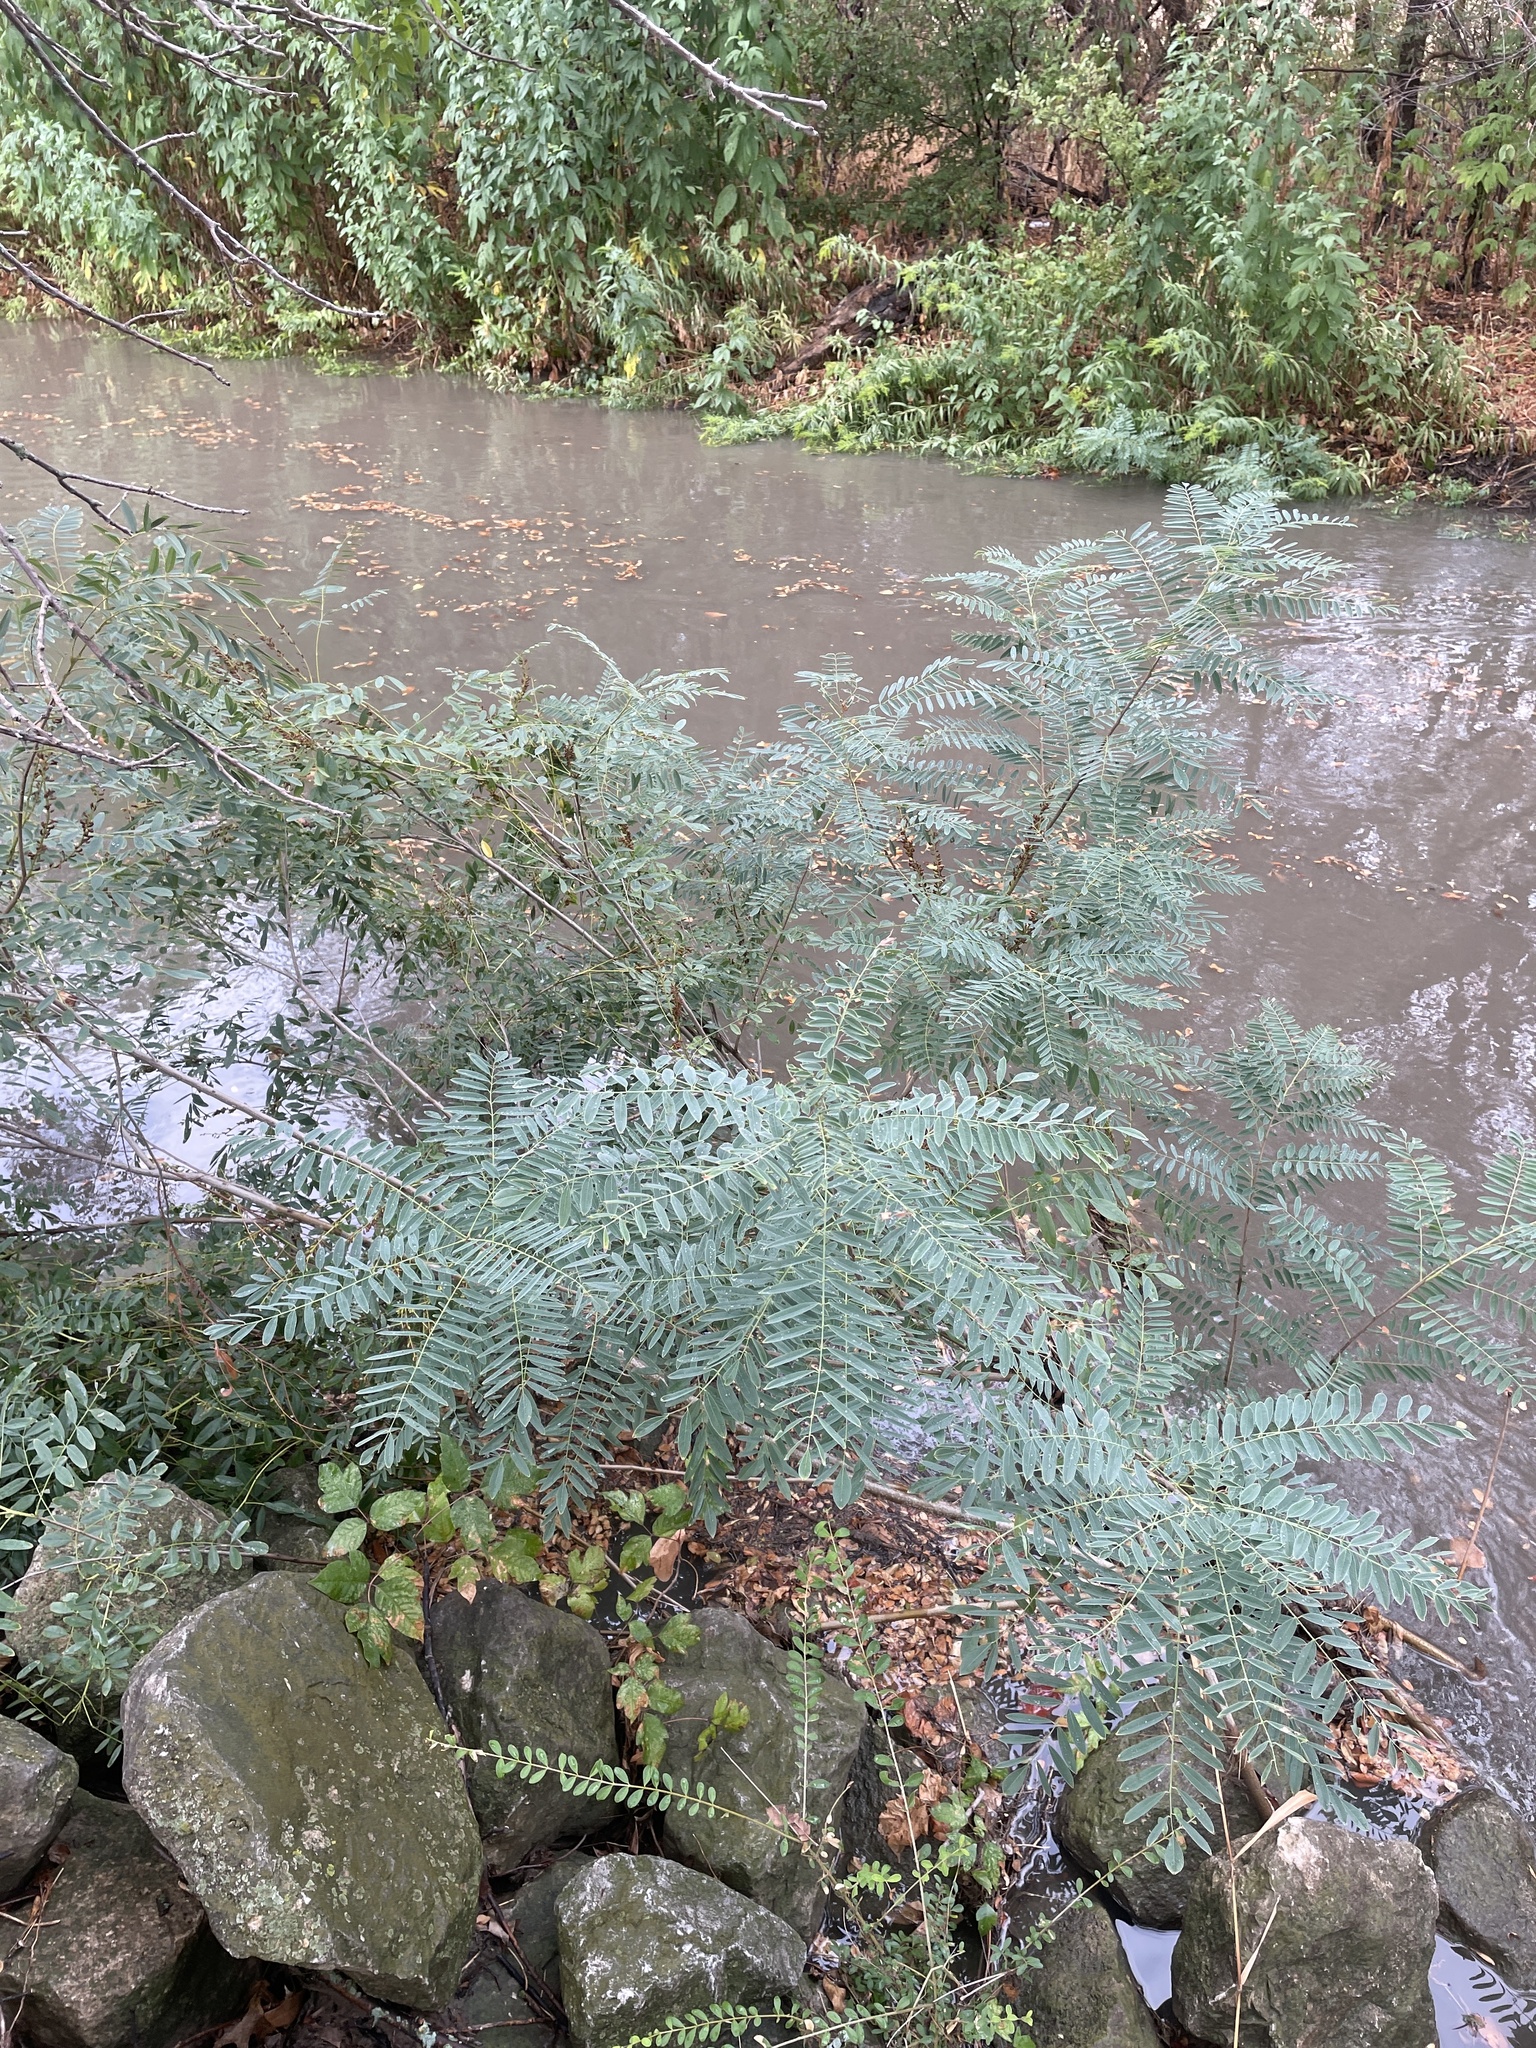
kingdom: Plantae
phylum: Tracheophyta
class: Magnoliopsida
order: Fabales
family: Fabaceae
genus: Amorpha
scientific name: Amorpha fruticosa
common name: False indigo
